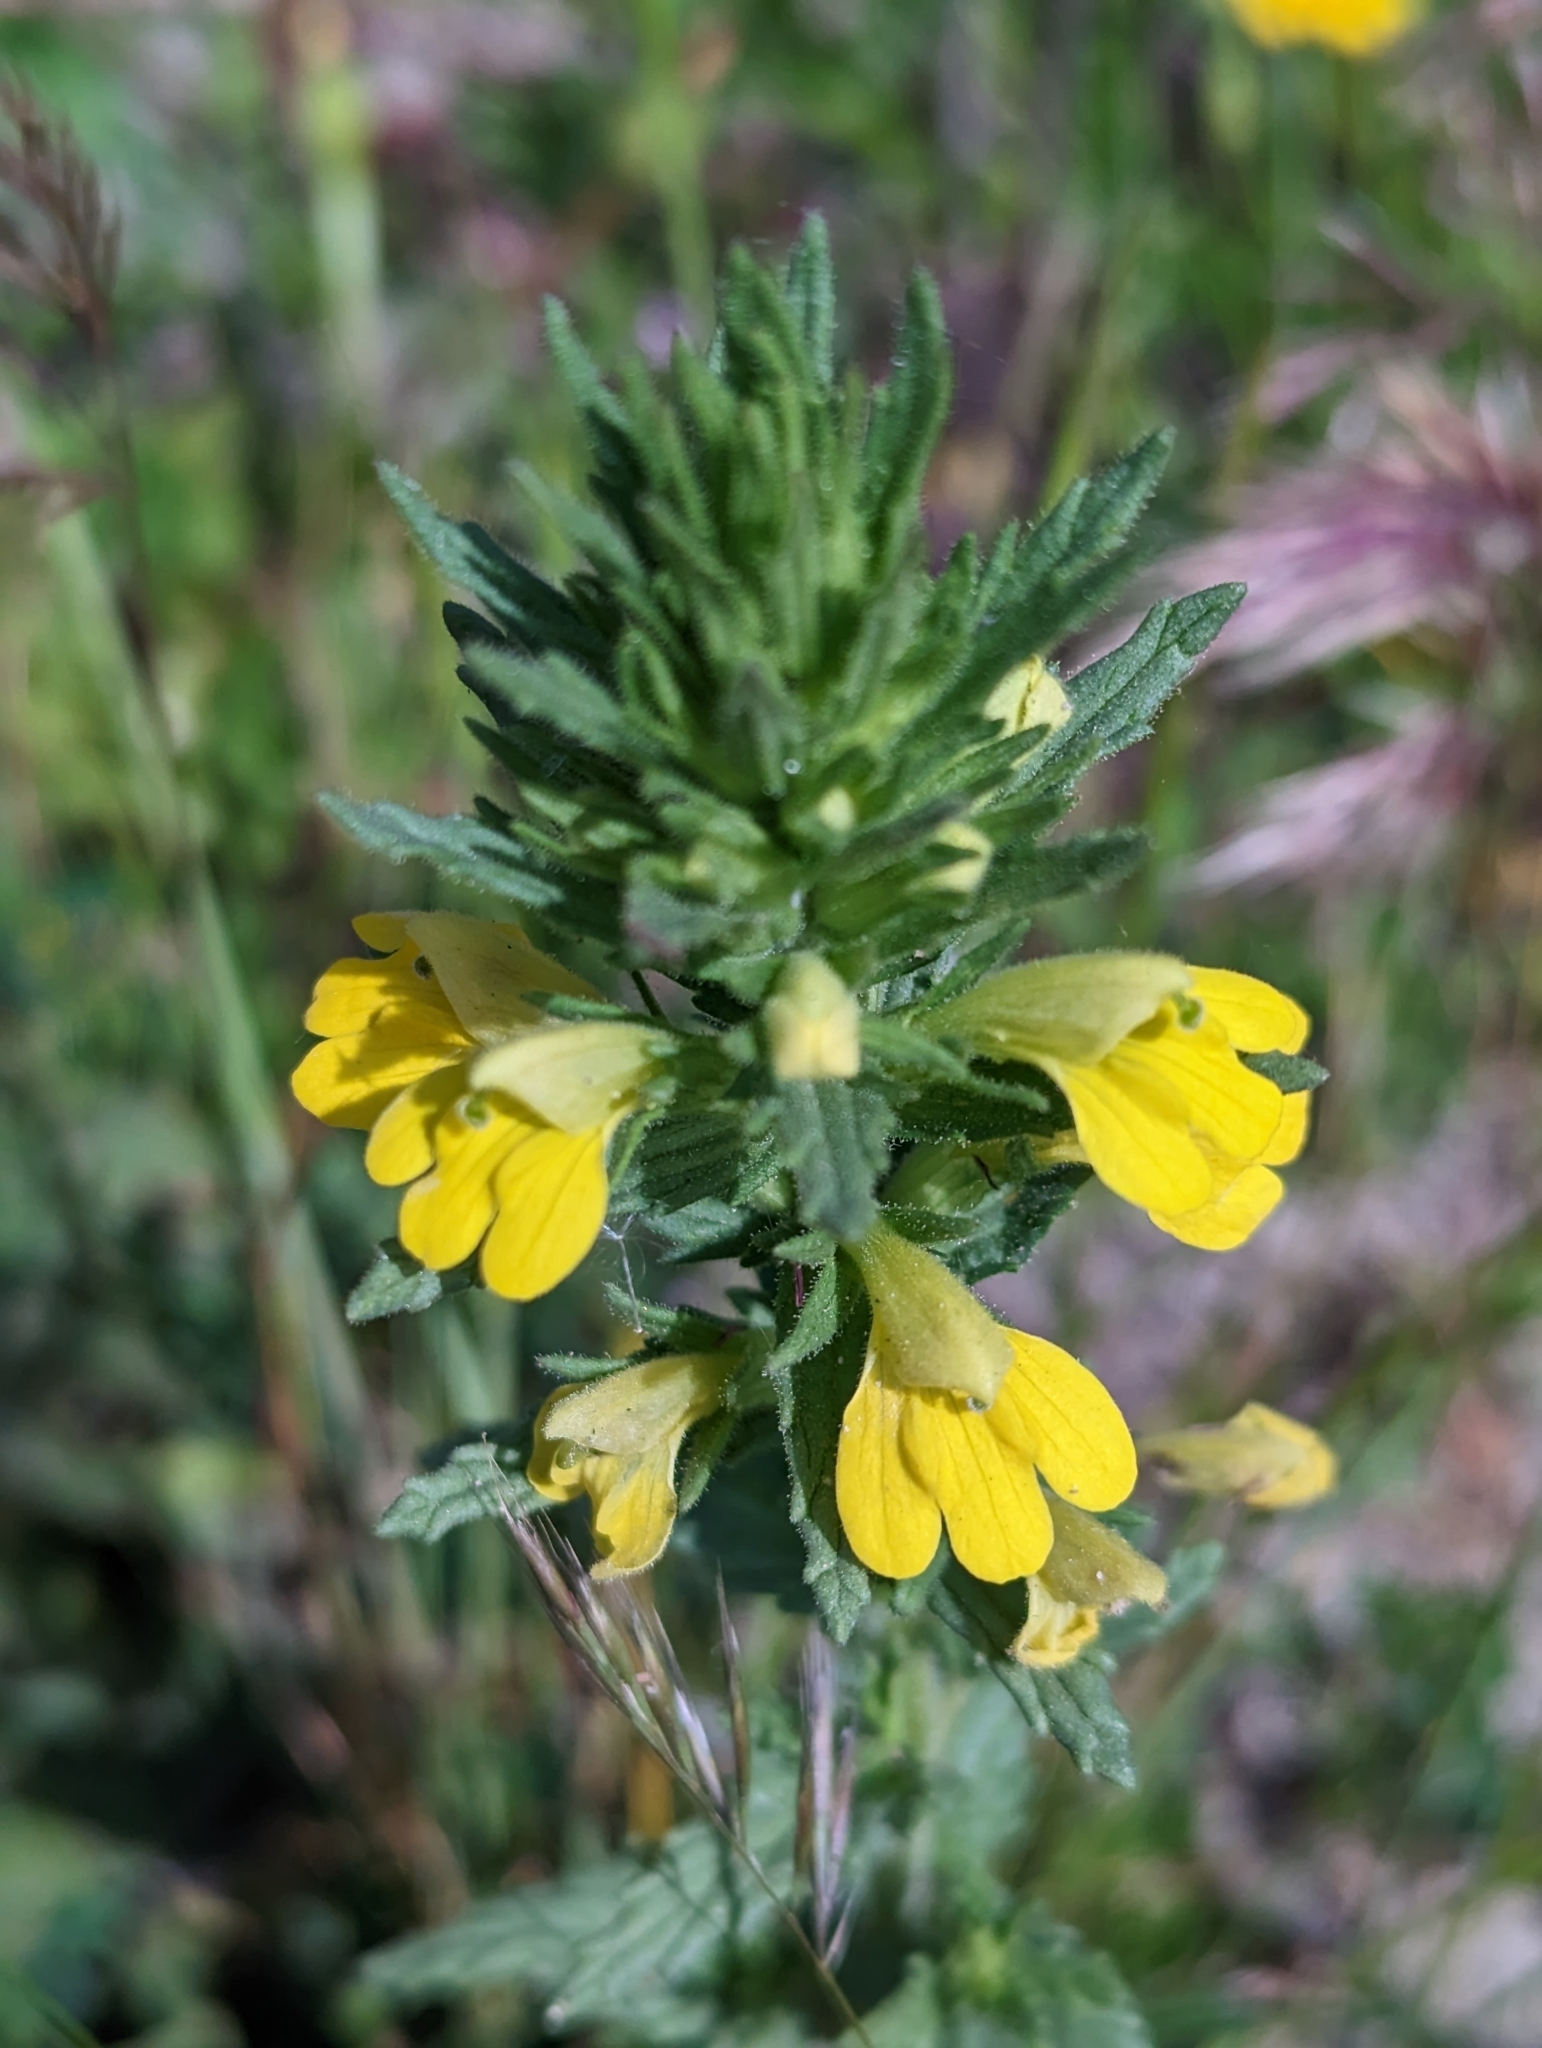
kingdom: Plantae
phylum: Tracheophyta
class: Magnoliopsida
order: Lamiales
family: Orobanchaceae
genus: Bellardia
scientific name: Bellardia viscosa
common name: Sticky parentucellia
